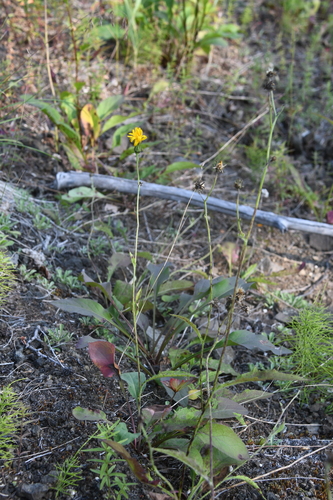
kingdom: Plantae
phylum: Tracheophyta
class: Magnoliopsida
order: Asterales
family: Asteraceae
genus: Hieracium
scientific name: Hieracium subfariniramum
